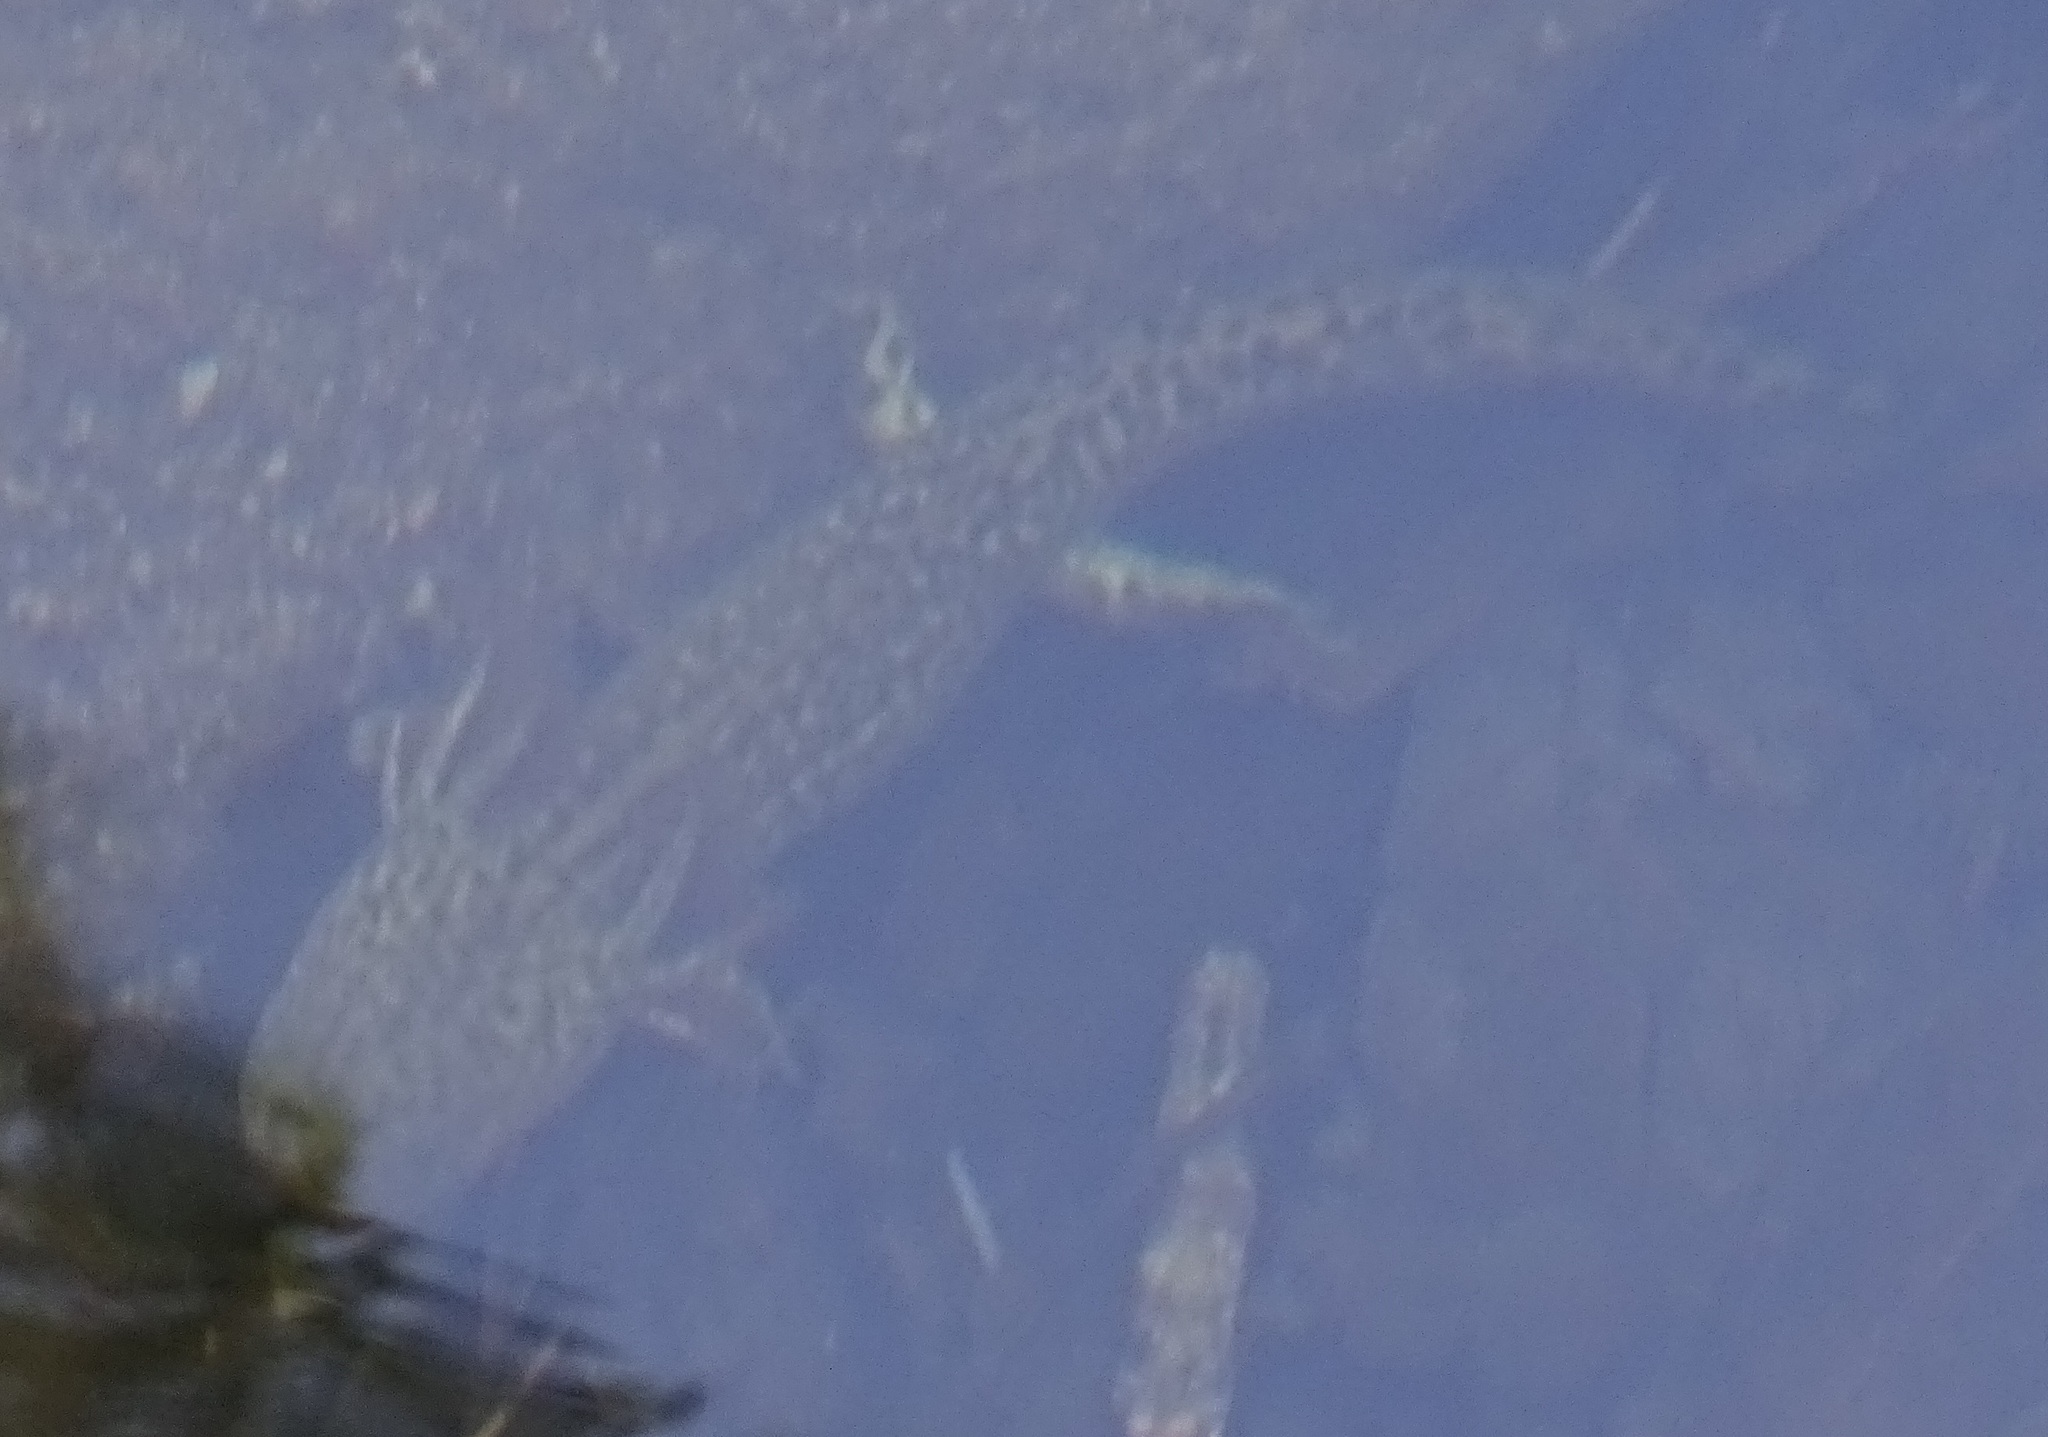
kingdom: Animalia
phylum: Chordata
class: Amphibia
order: Caudata
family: Ambystomatidae
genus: Ambystoma
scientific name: Ambystoma rosaceum
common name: Tarahumara salamander
